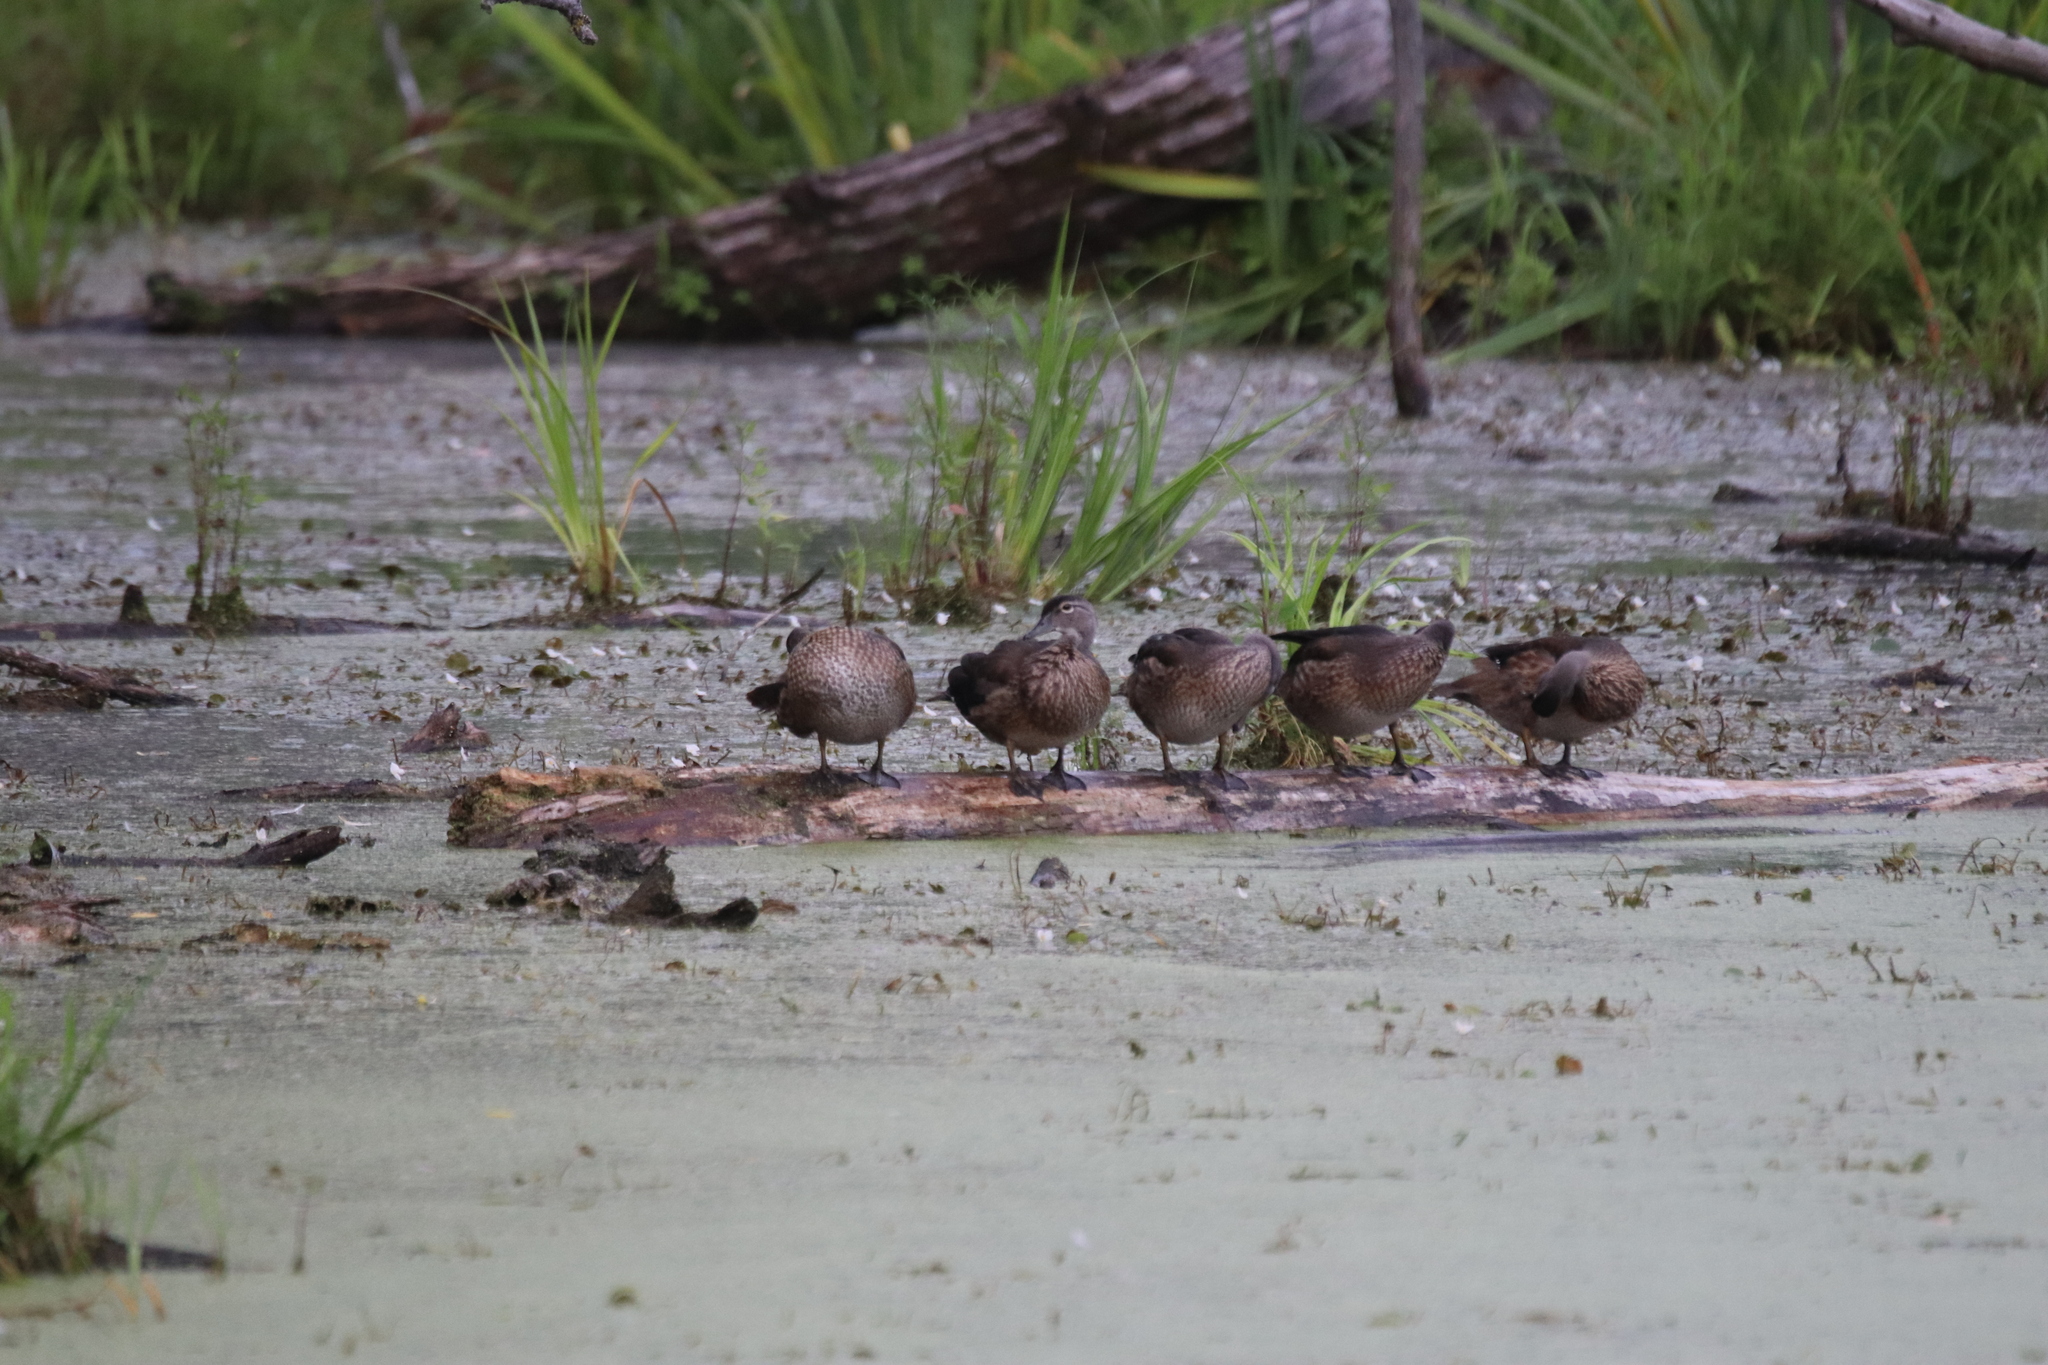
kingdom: Animalia
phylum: Chordata
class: Aves
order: Anseriformes
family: Anatidae
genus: Aix
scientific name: Aix sponsa
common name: Wood duck
